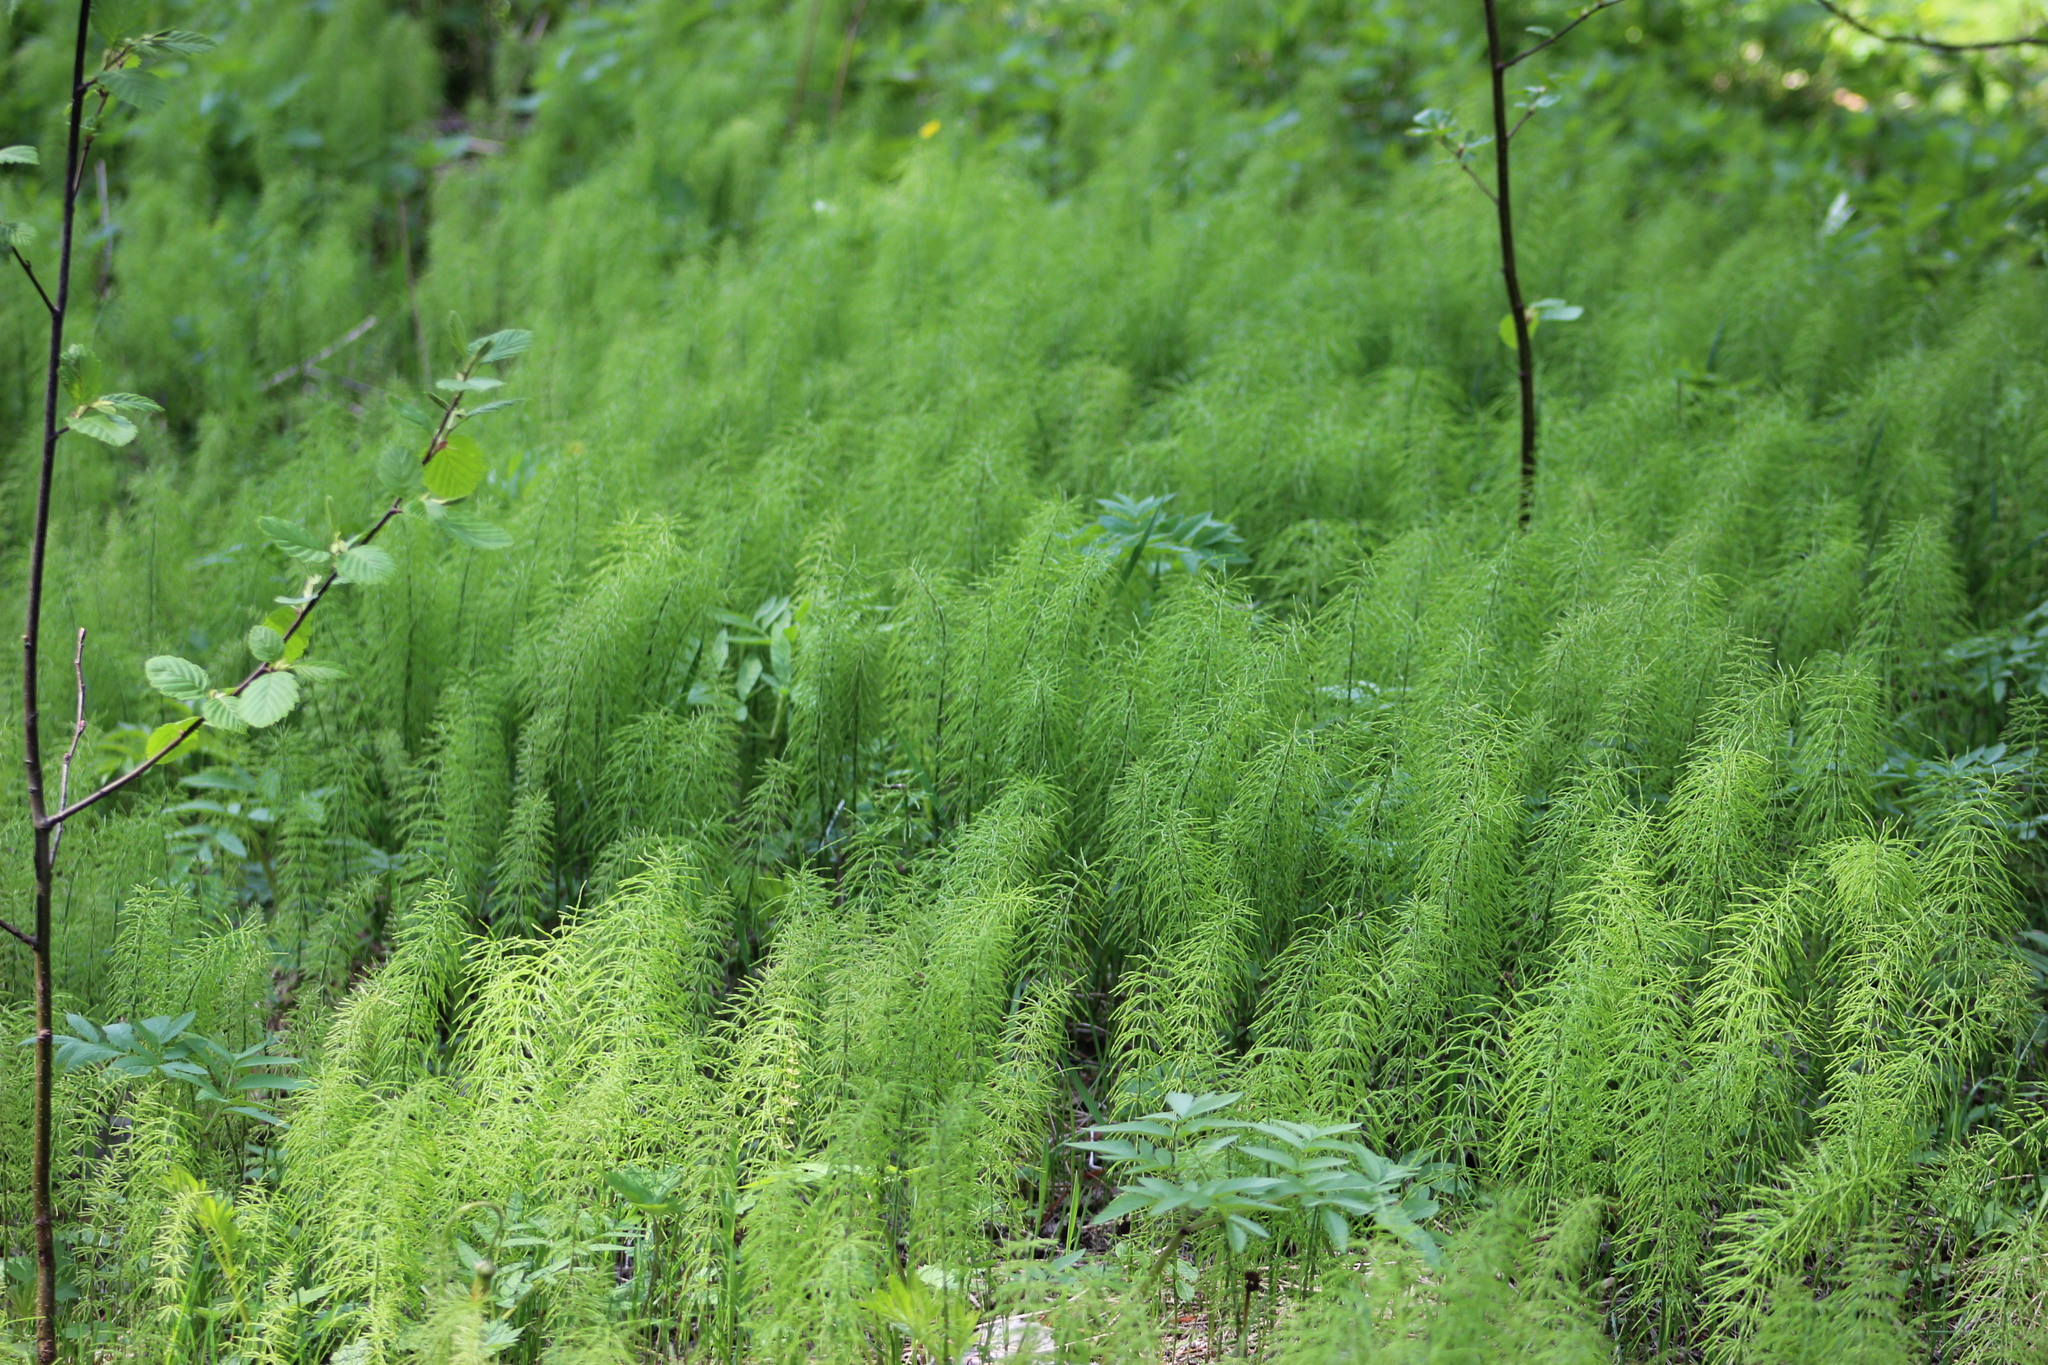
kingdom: Plantae
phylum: Tracheophyta
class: Polypodiopsida
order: Equisetales
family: Equisetaceae
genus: Equisetum
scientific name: Equisetum pratense
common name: Meadow horsetail
